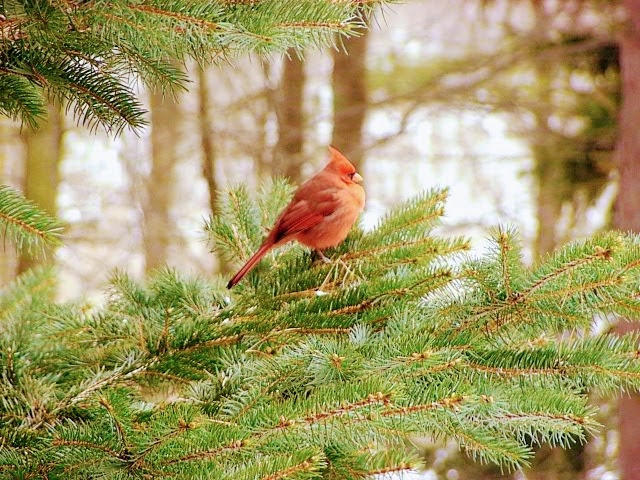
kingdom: Animalia
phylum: Chordata
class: Aves
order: Passeriformes
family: Cardinalidae
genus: Cardinalis
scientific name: Cardinalis cardinalis
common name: Northern cardinal
